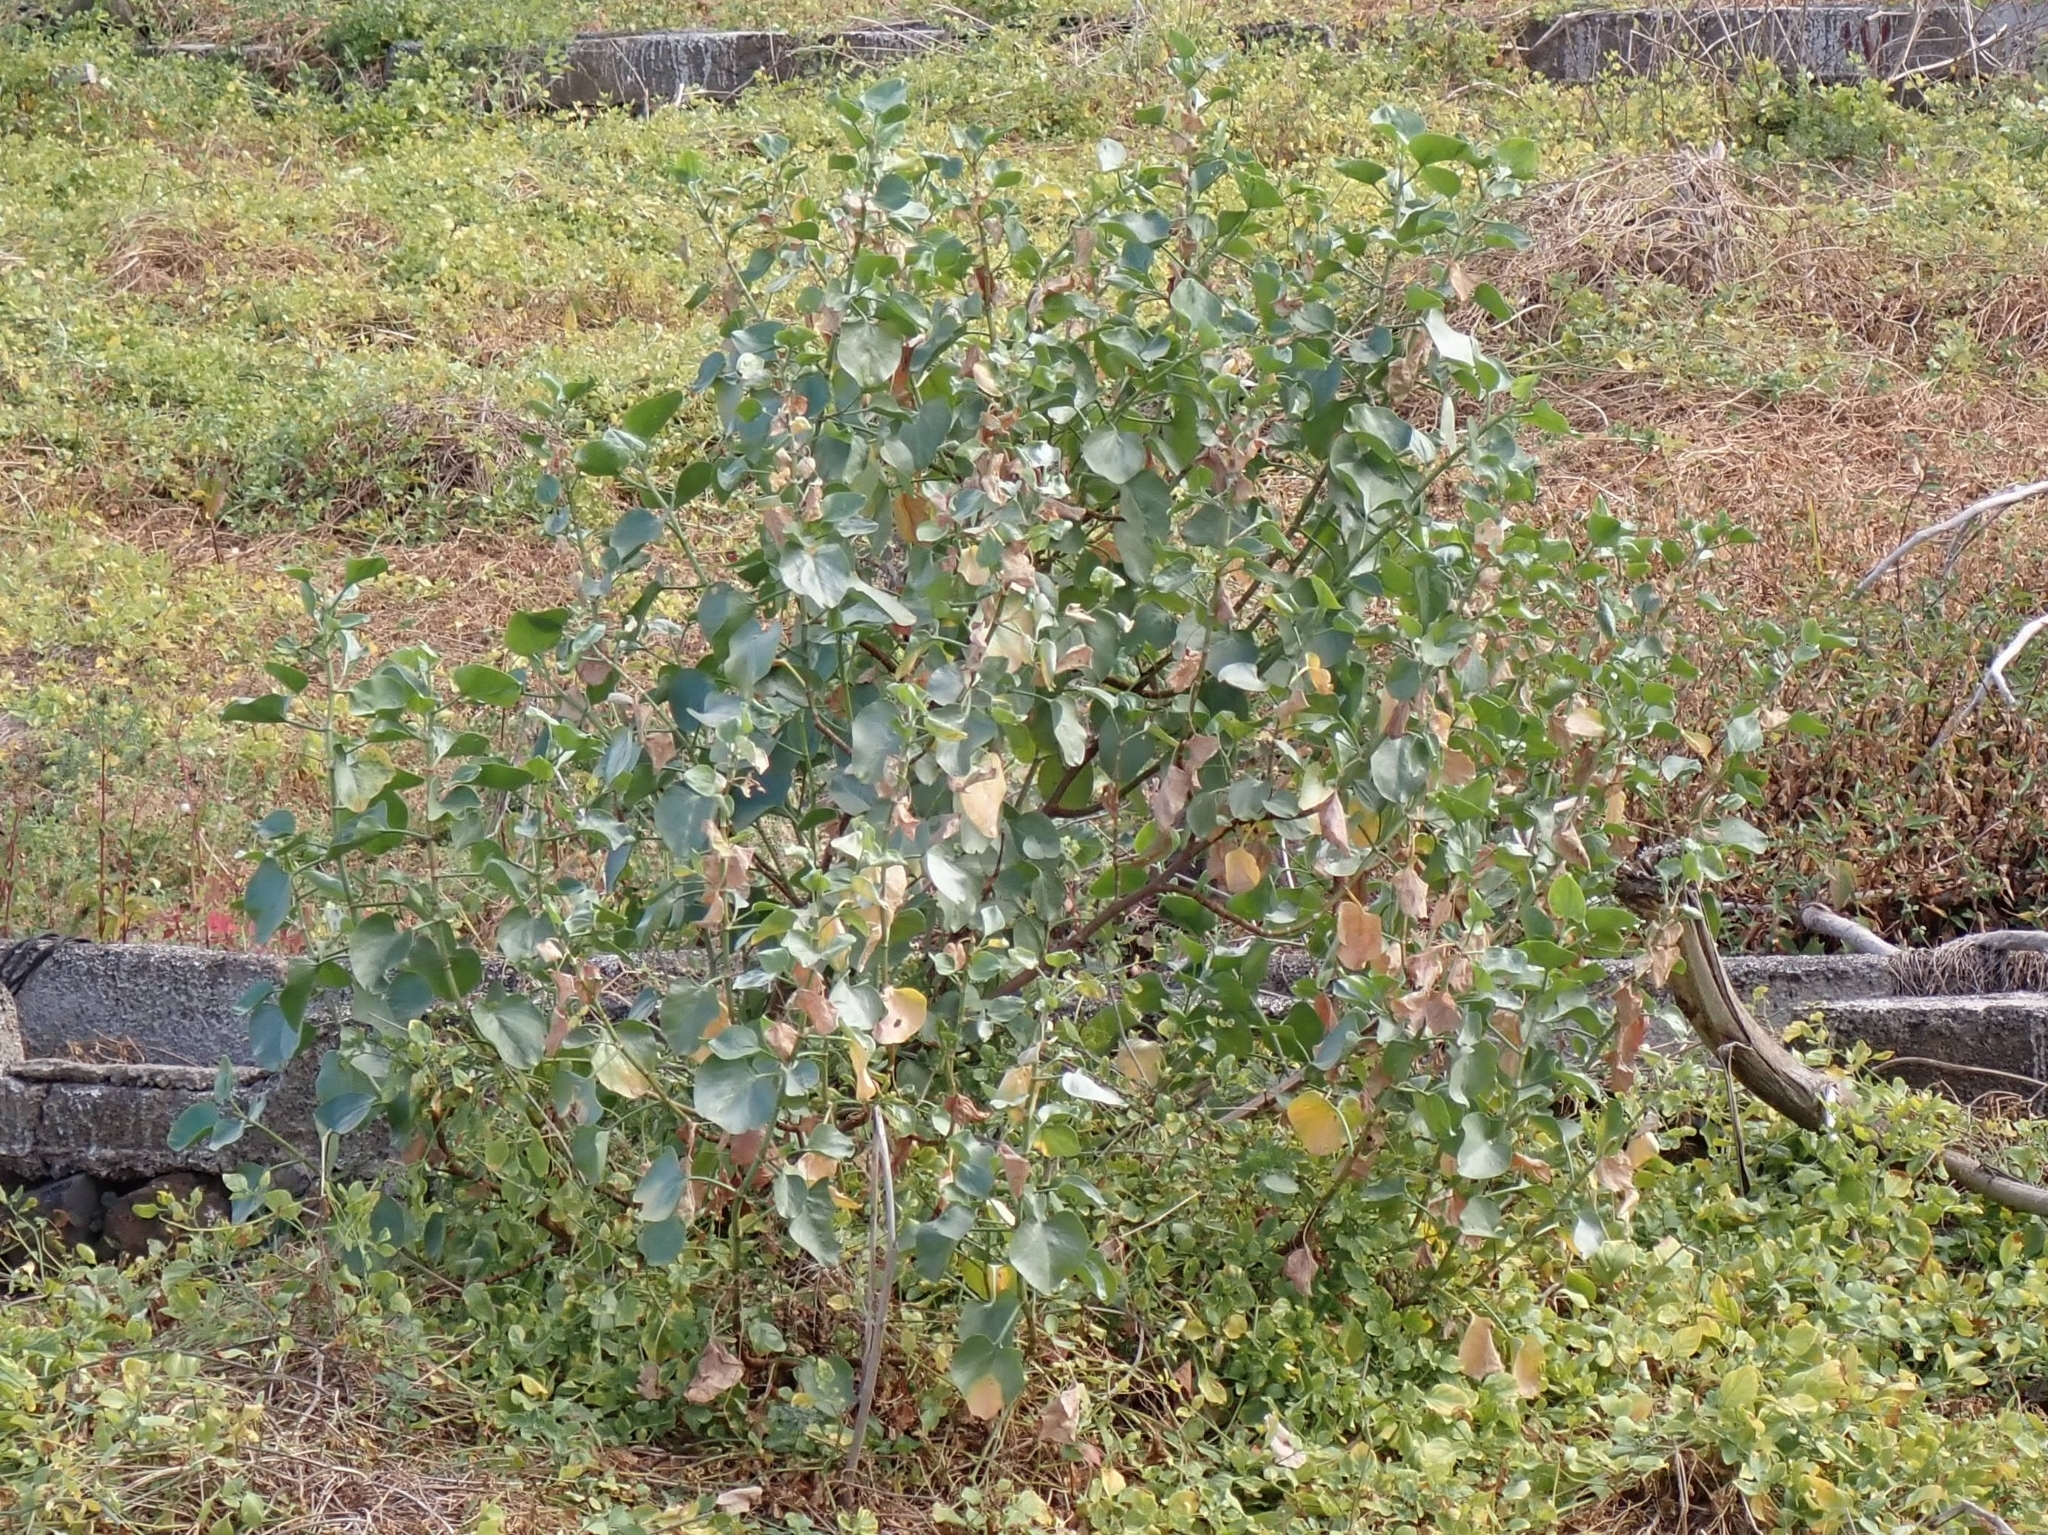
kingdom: Plantae
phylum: Tracheophyta
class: Magnoliopsida
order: Caryophyllales
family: Polygonaceae
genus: Rumex
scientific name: Rumex lunaria
